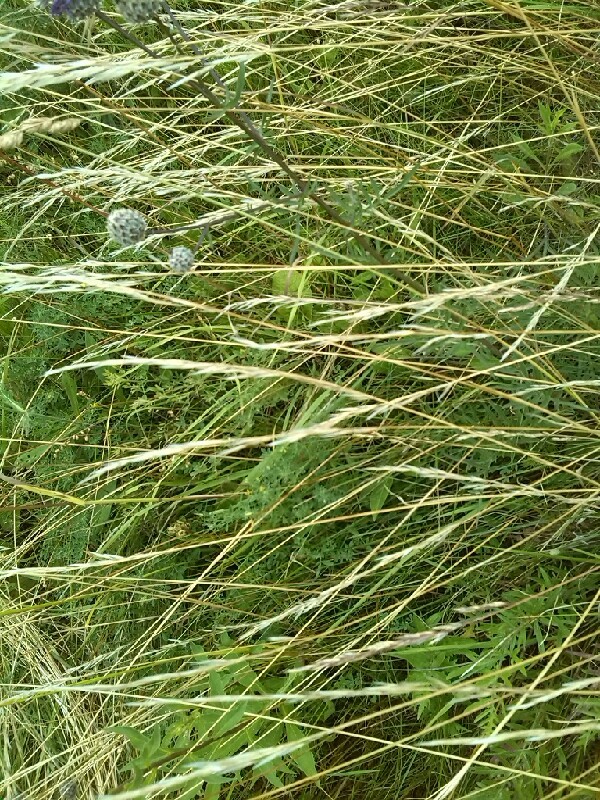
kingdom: Plantae
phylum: Tracheophyta
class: Liliopsida
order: Poales
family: Poaceae
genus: Avenula
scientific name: Avenula pubescens
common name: Downy alpine oatgrass
